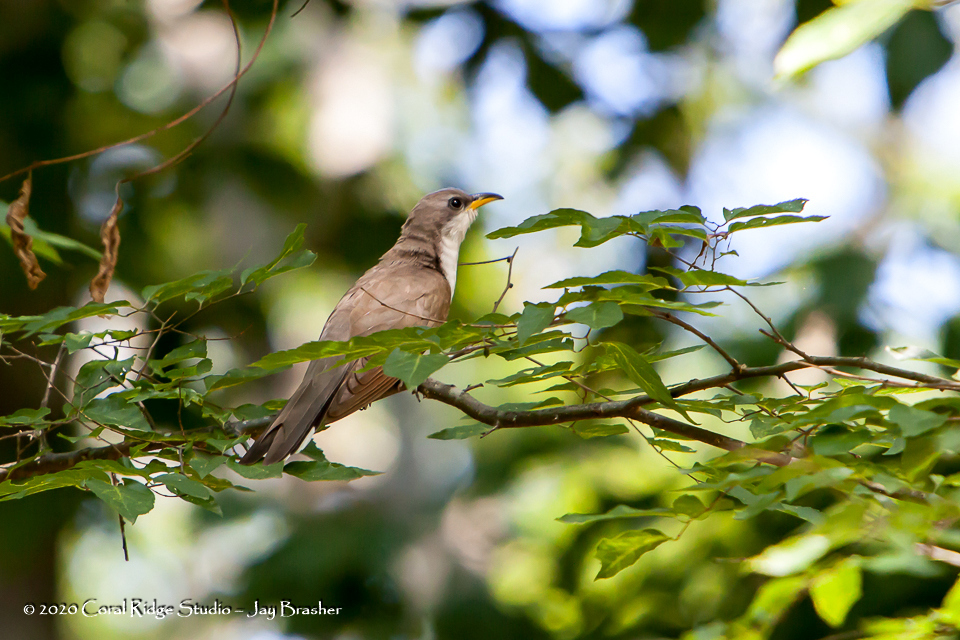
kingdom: Animalia
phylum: Chordata
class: Aves
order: Cuculiformes
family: Cuculidae
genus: Coccyzus
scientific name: Coccyzus americanus
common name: Yellow-billed cuckoo
